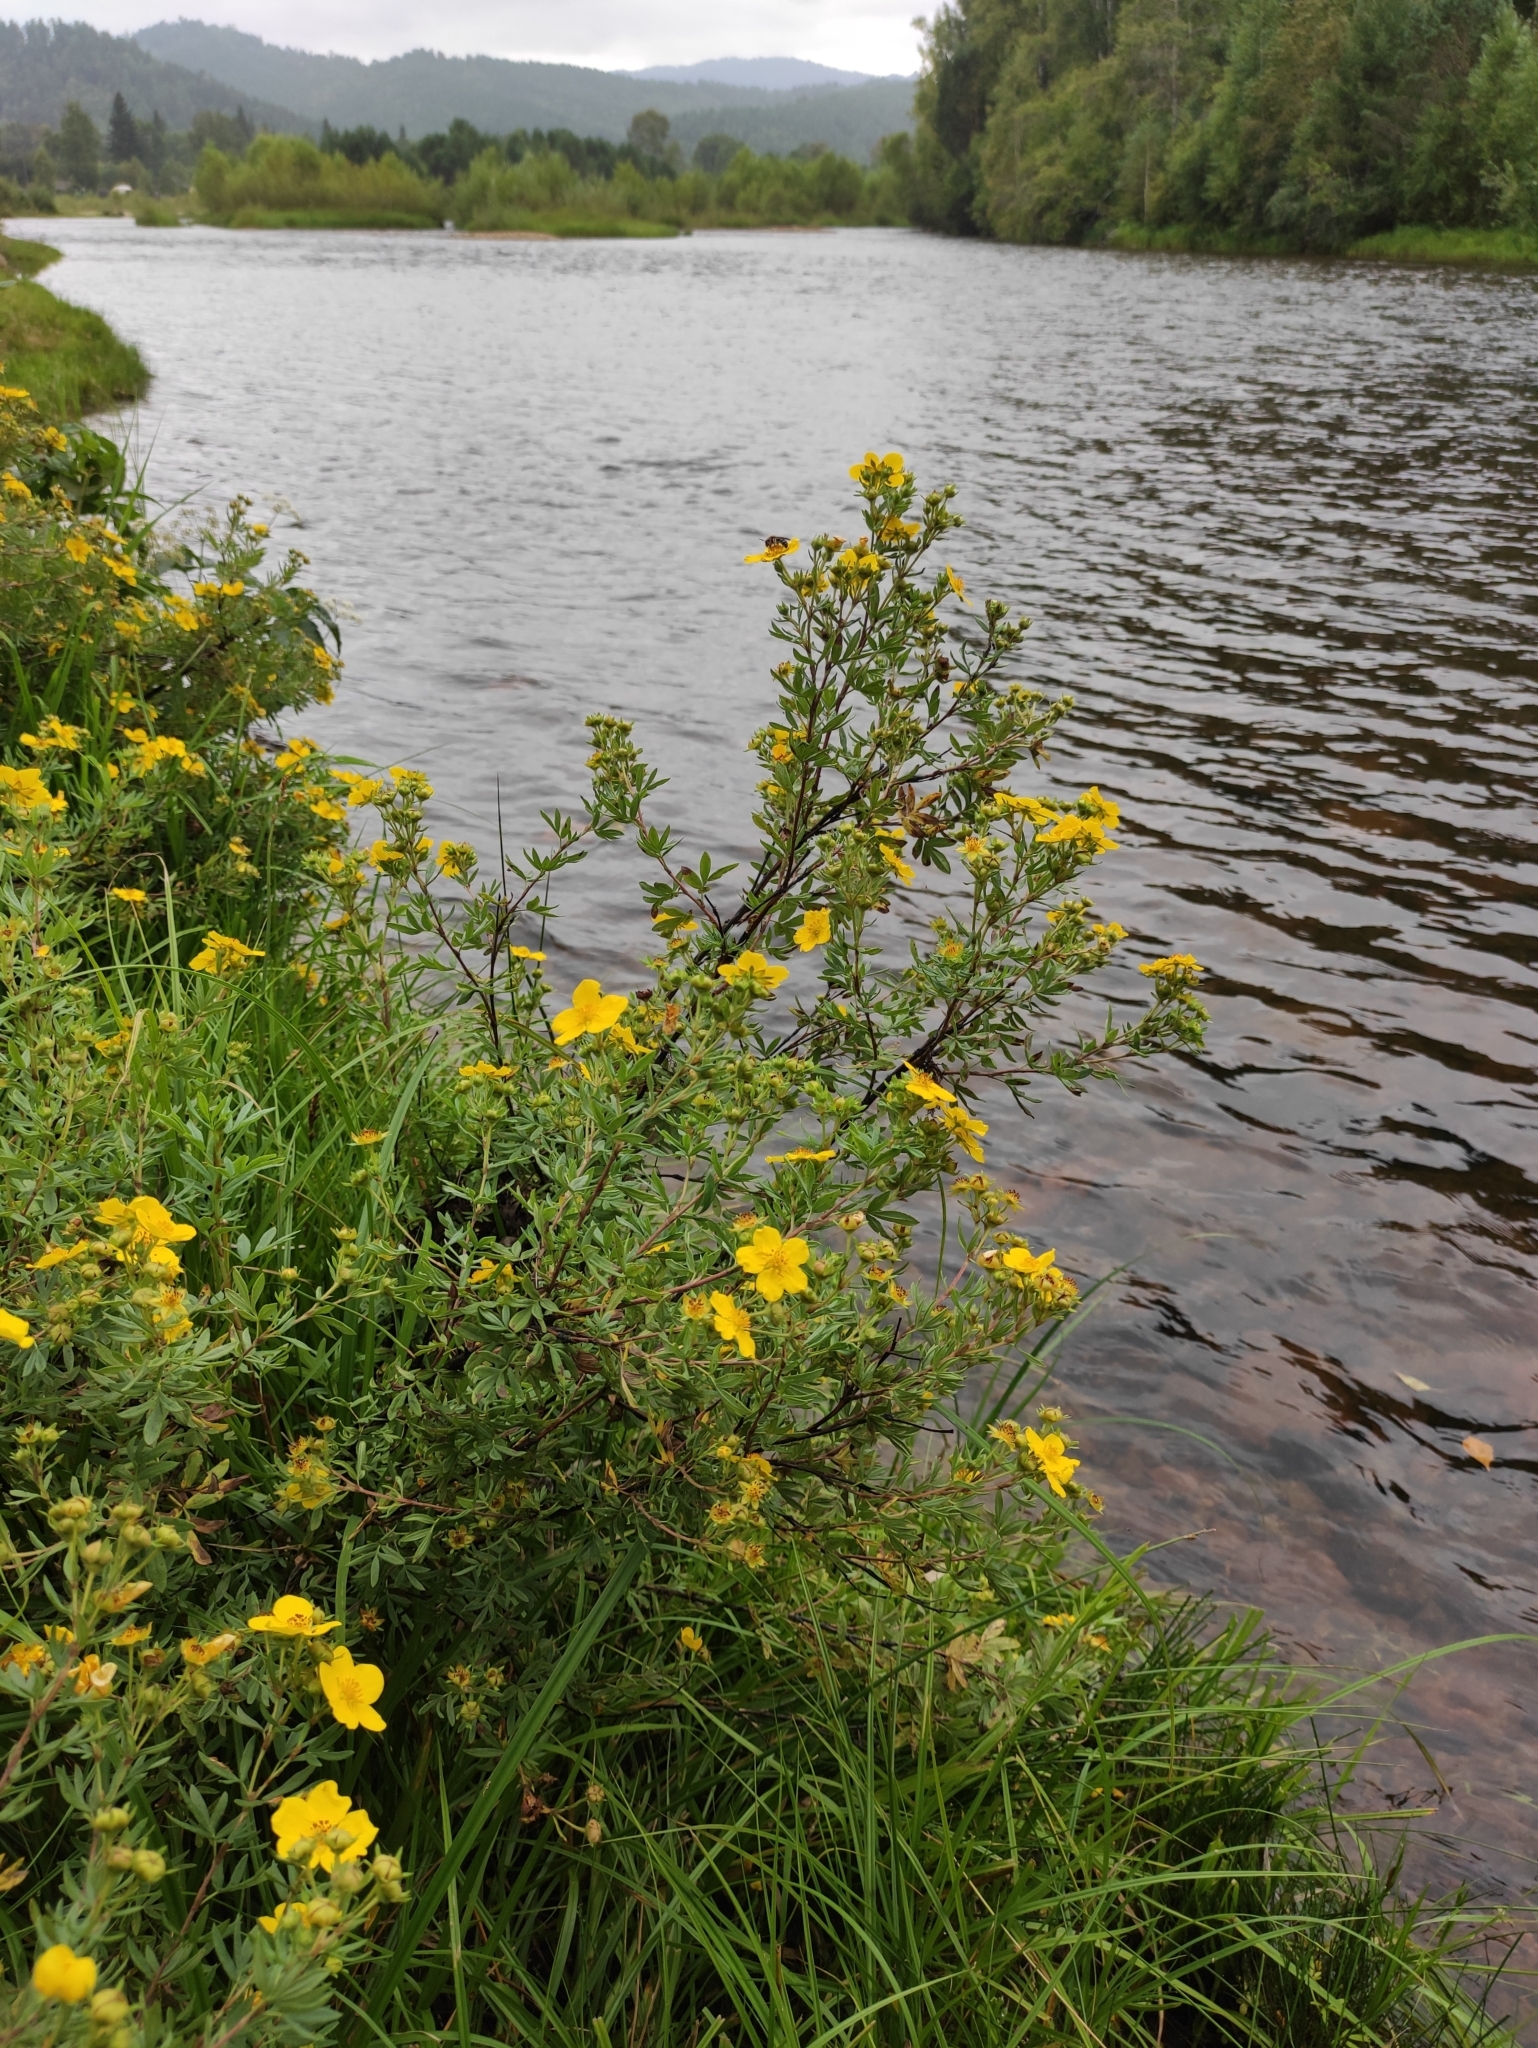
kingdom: Plantae
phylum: Tracheophyta
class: Magnoliopsida
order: Rosales
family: Rosaceae
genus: Dasiphora
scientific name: Dasiphora fruticosa
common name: Shrubby cinquefoil
